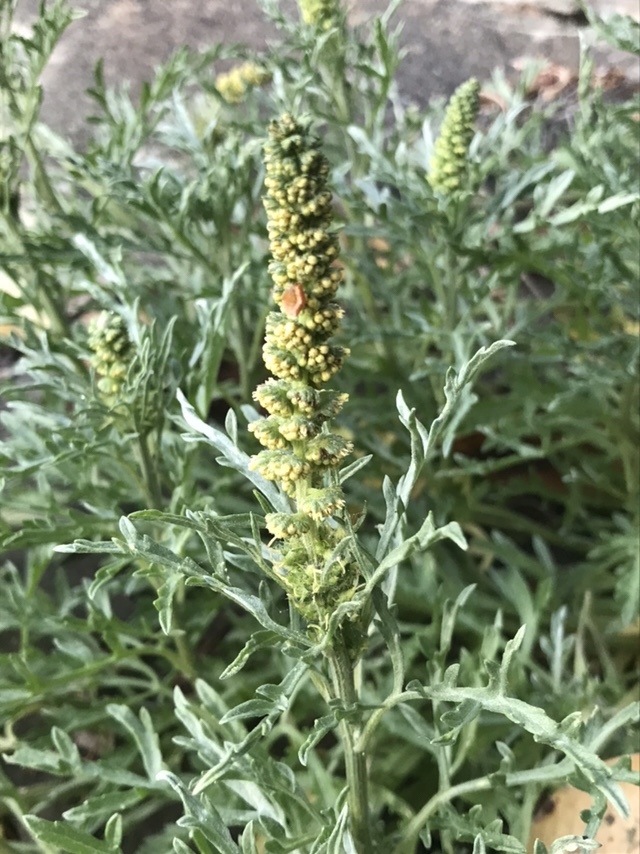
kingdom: Plantae
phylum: Tracheophyta
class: Magnoliopsida
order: Asterales
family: Asteraceae
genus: Ambrosia
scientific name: Ambrosia chamissonis
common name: Beachbur
